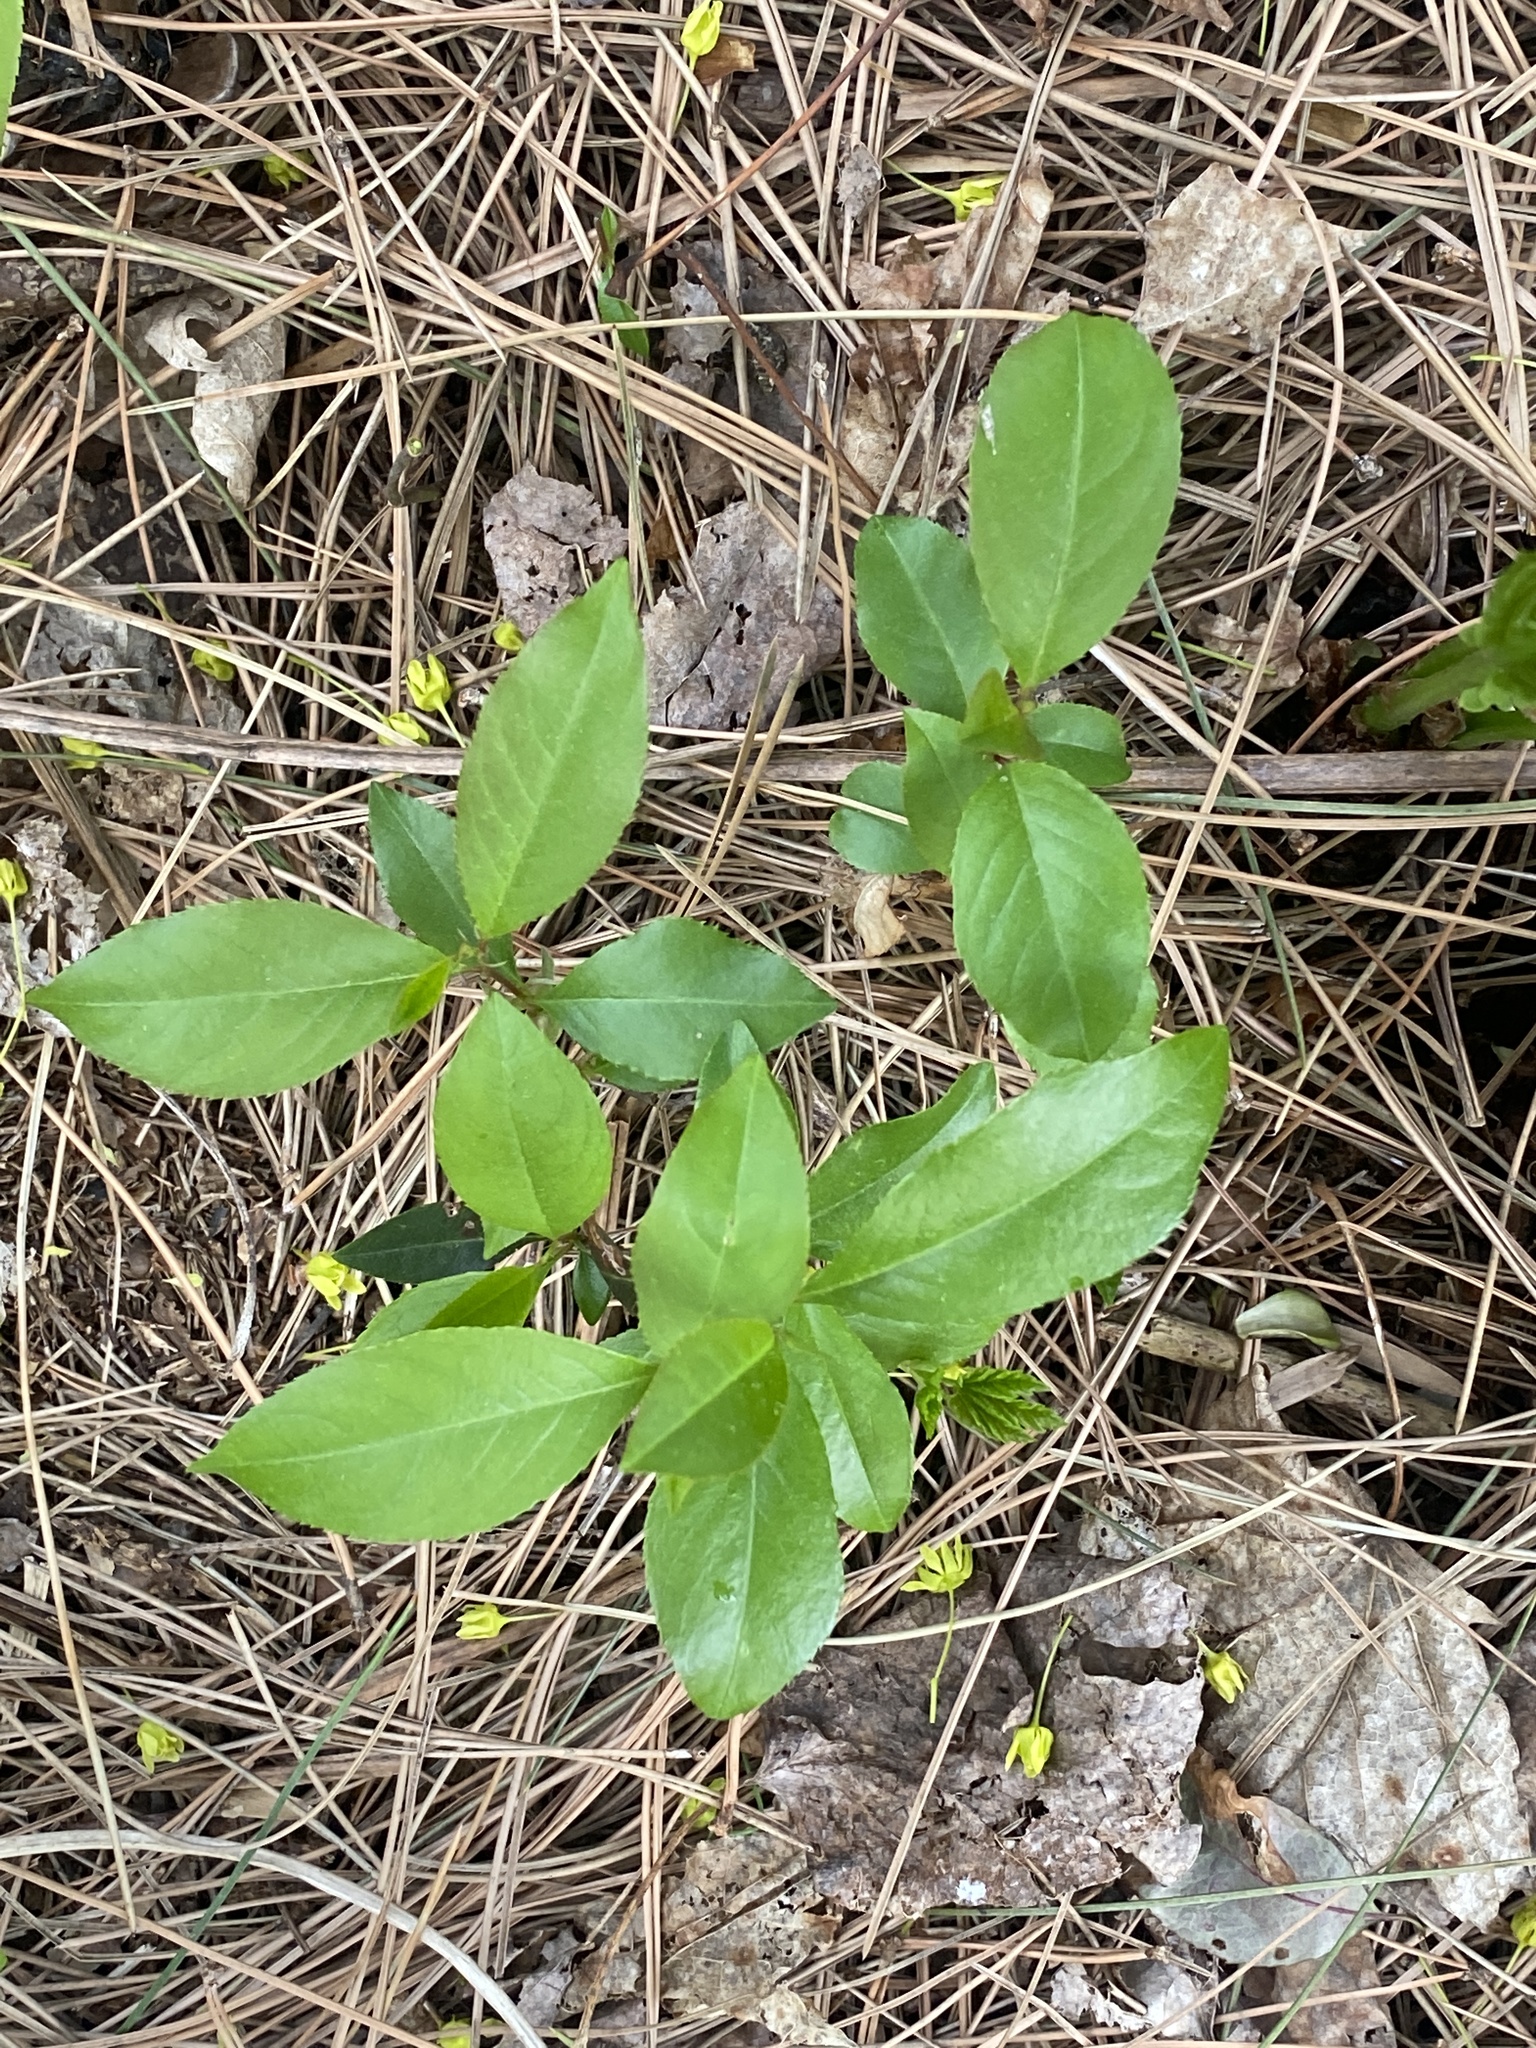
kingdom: Plantae
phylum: Tracheophyta
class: Magnoliopsida
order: Rosales
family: Rosaceae
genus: Prunus
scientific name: Prunus serotina
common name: Black cherry
